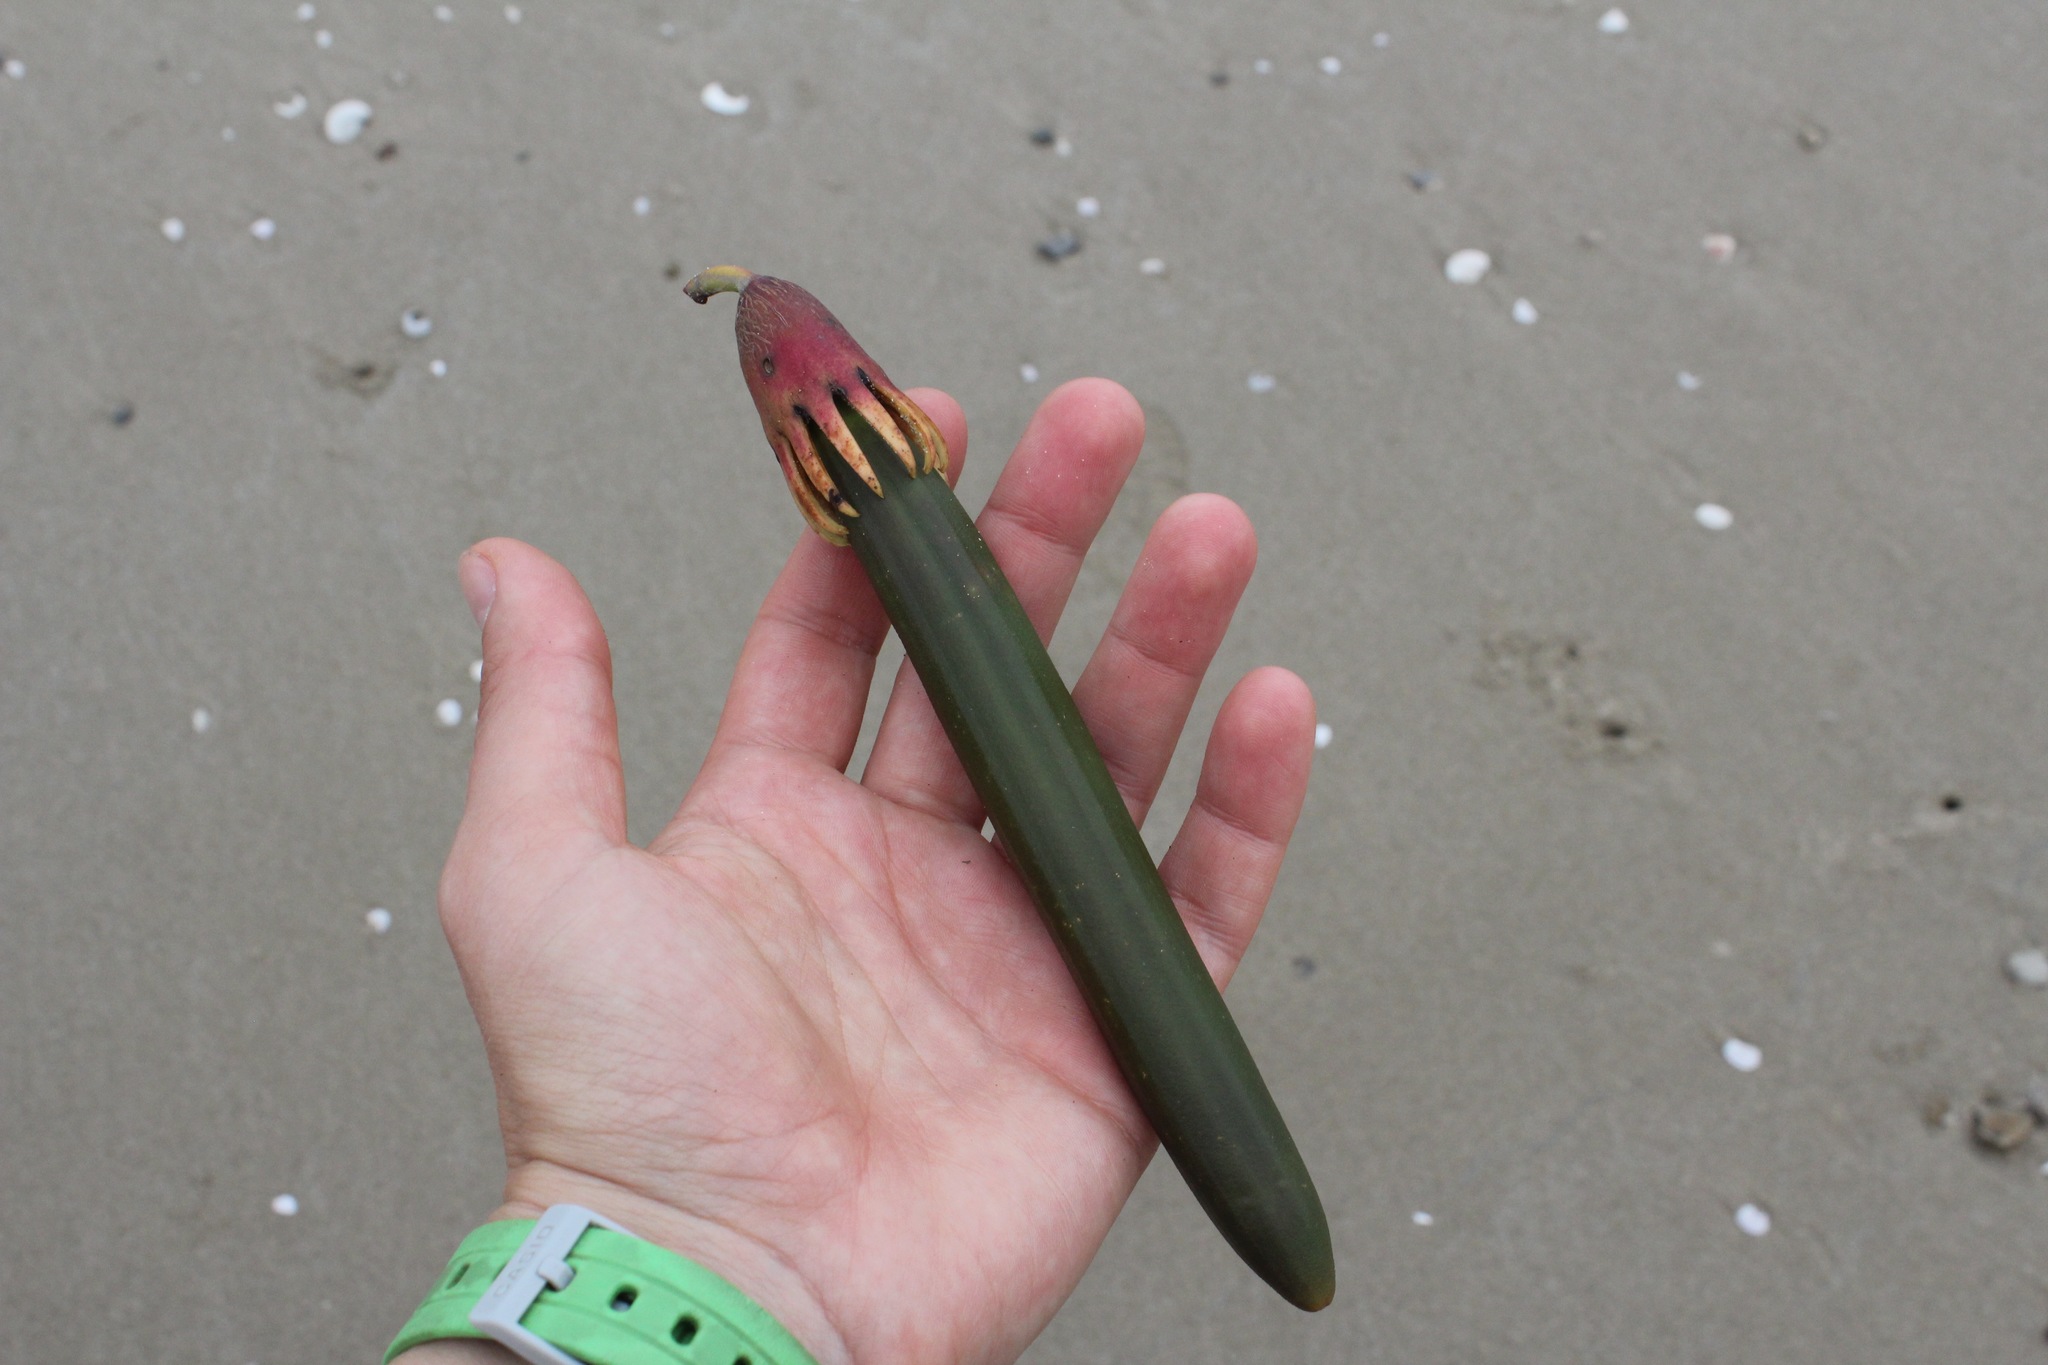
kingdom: Plantae
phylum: Tracheophyta
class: Magnoliopsida
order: Malpighiales
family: Rhizophoraceae
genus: Bruguiera
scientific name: Bruguiera gymnorhiza
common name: Oriental mangrove
